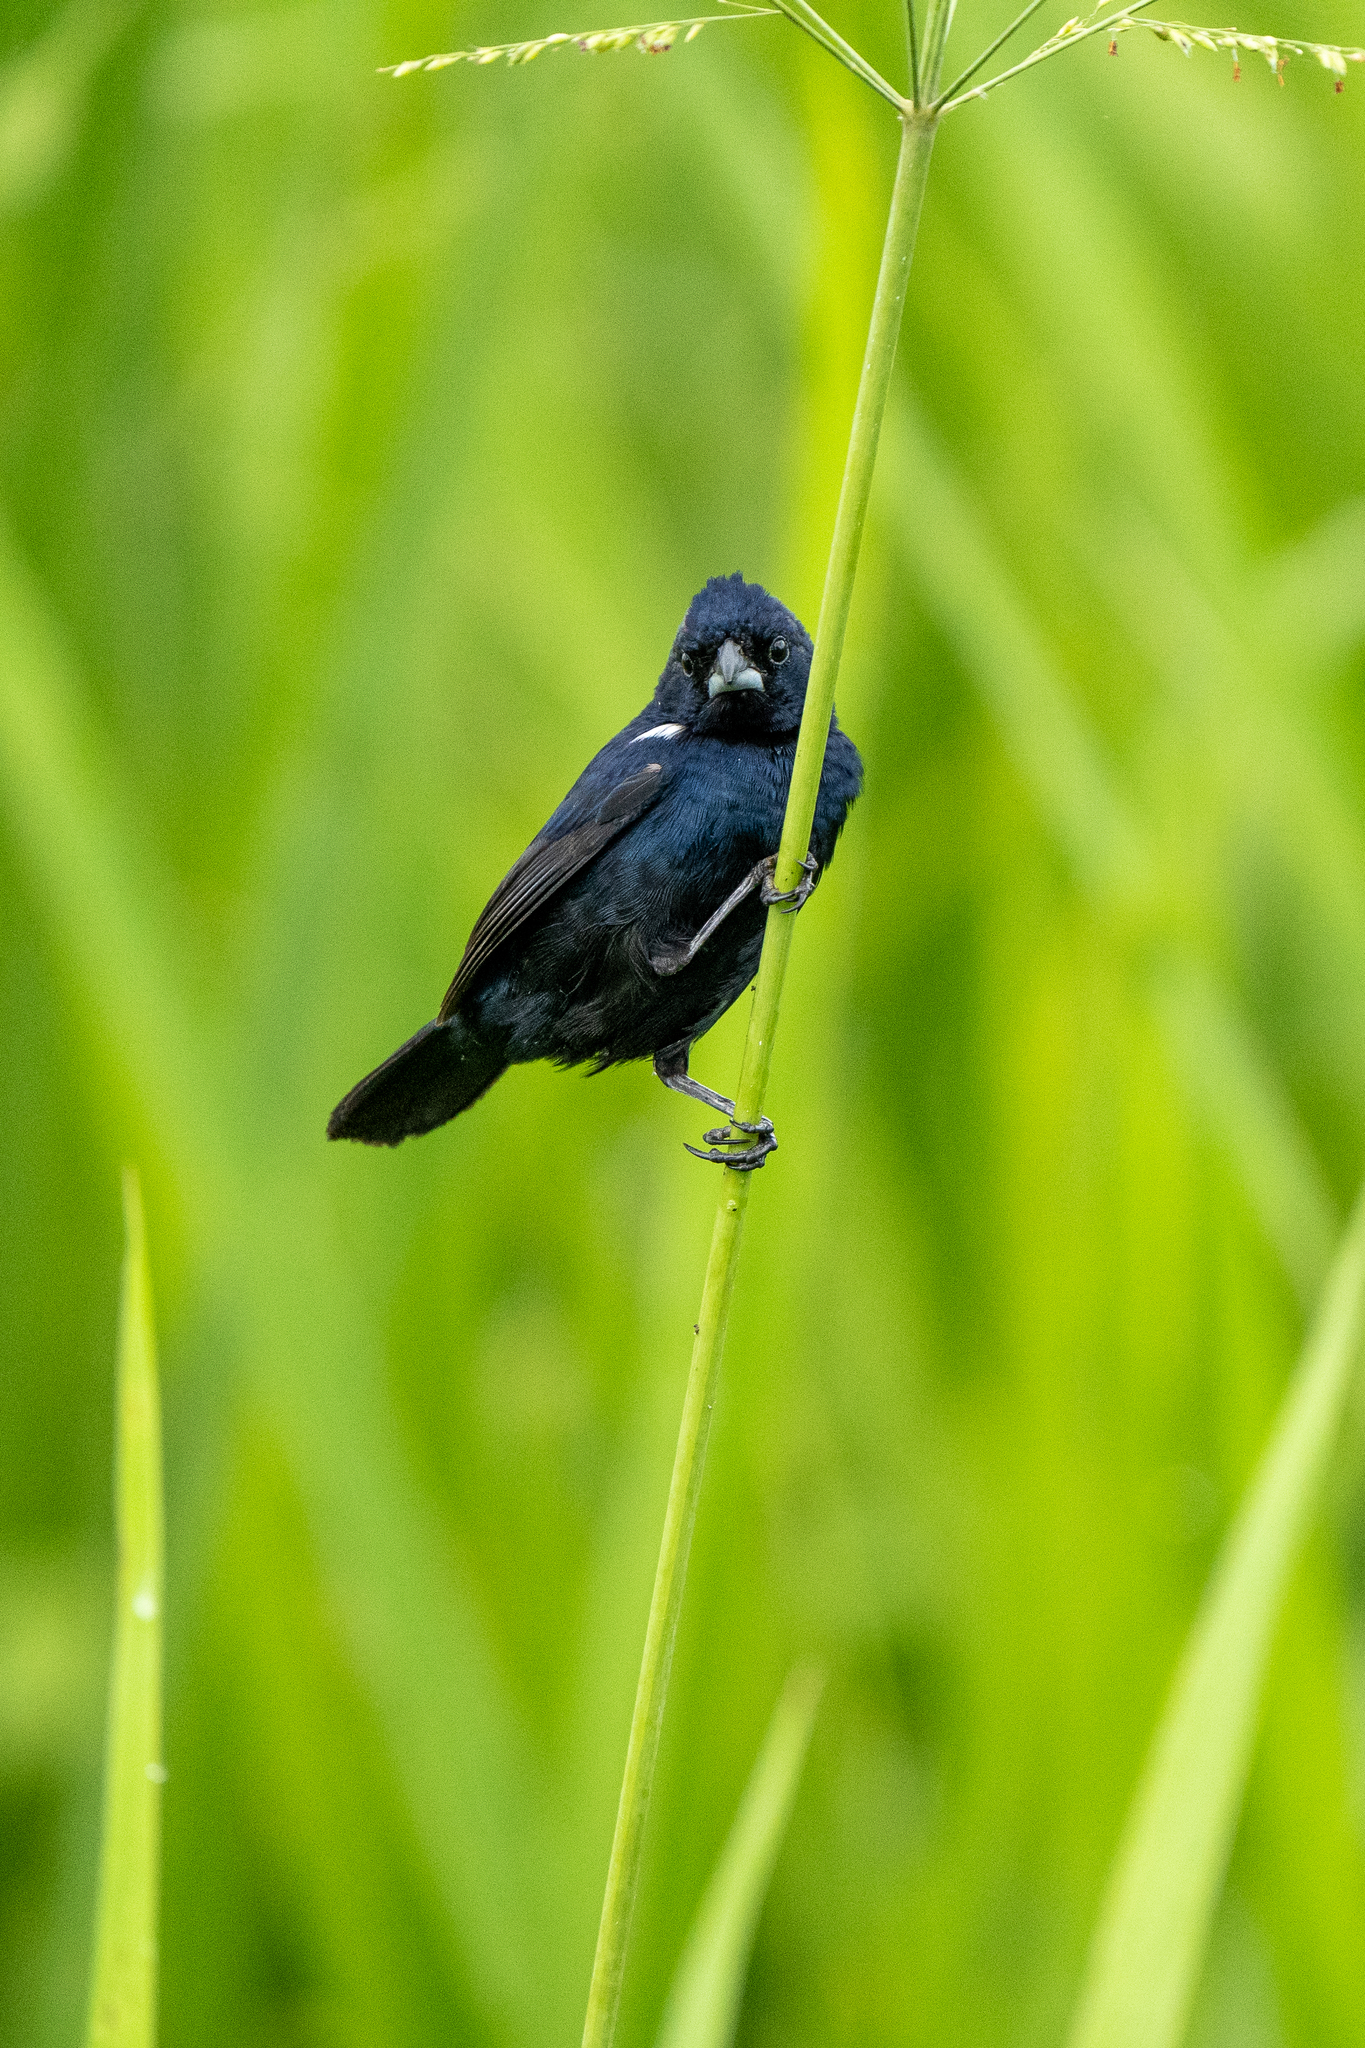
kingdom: Animalia
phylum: Chordata
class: Aves
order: Passeriformes
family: Thraupidae
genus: Volatinia
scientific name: Volatinia jacarina
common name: Blue-black grassquit
